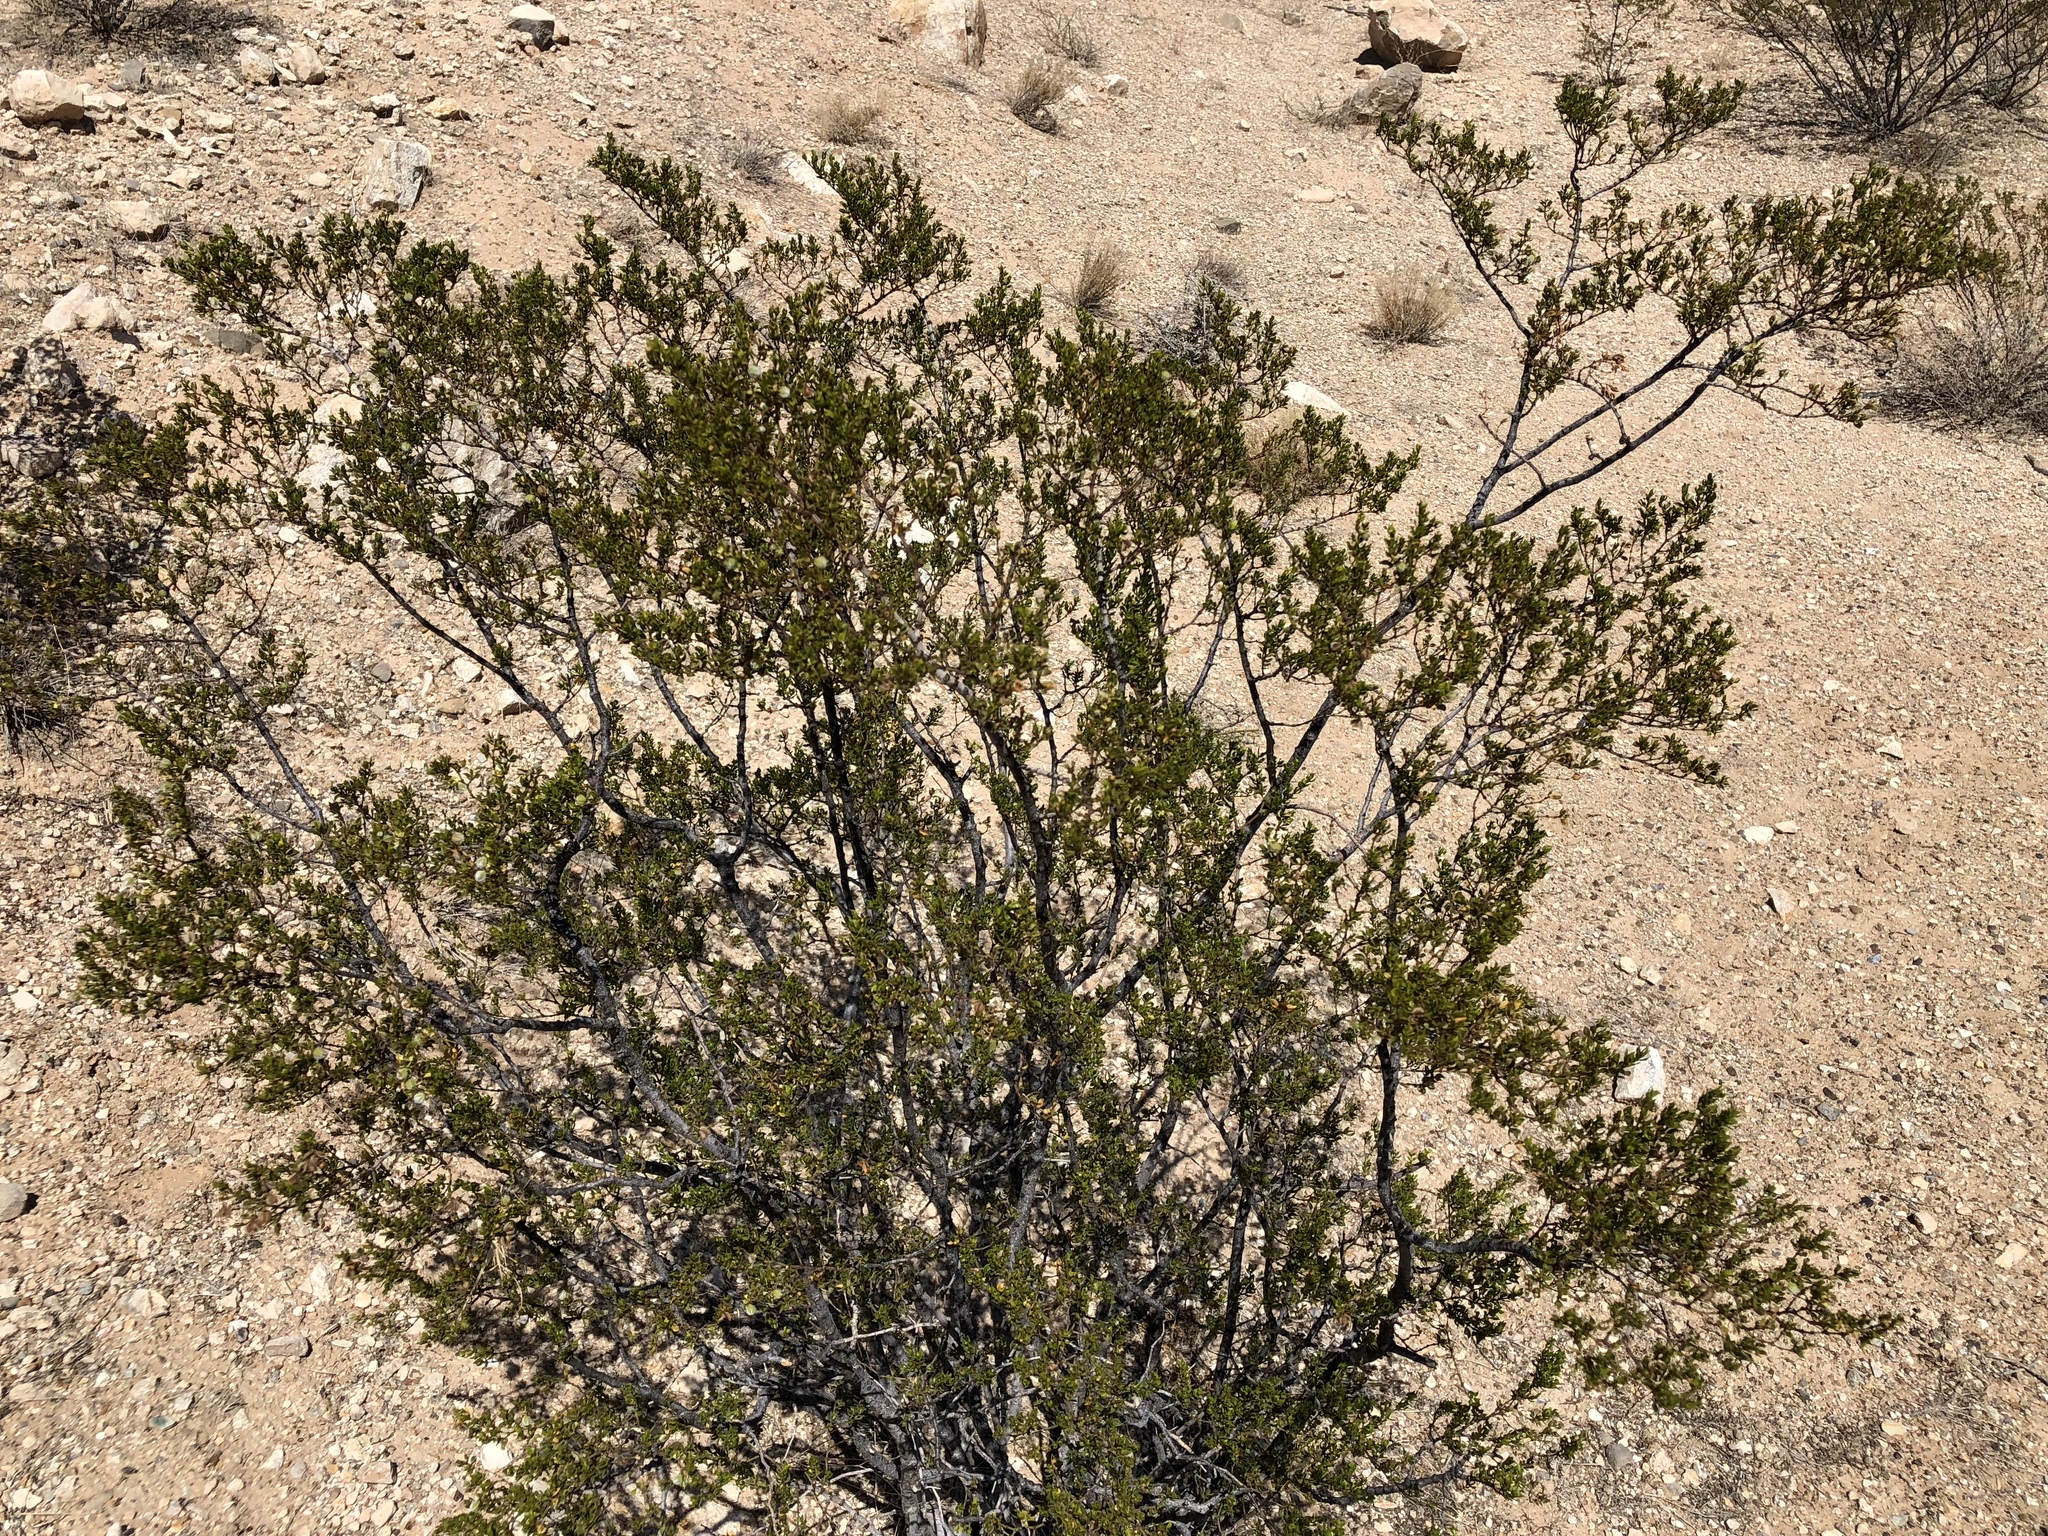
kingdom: Plantae
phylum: Tracheophyta
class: Magnoliopsida
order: Zygophyllales
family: Zygophyllaceae
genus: Larrea
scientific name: Larrea tridentata
